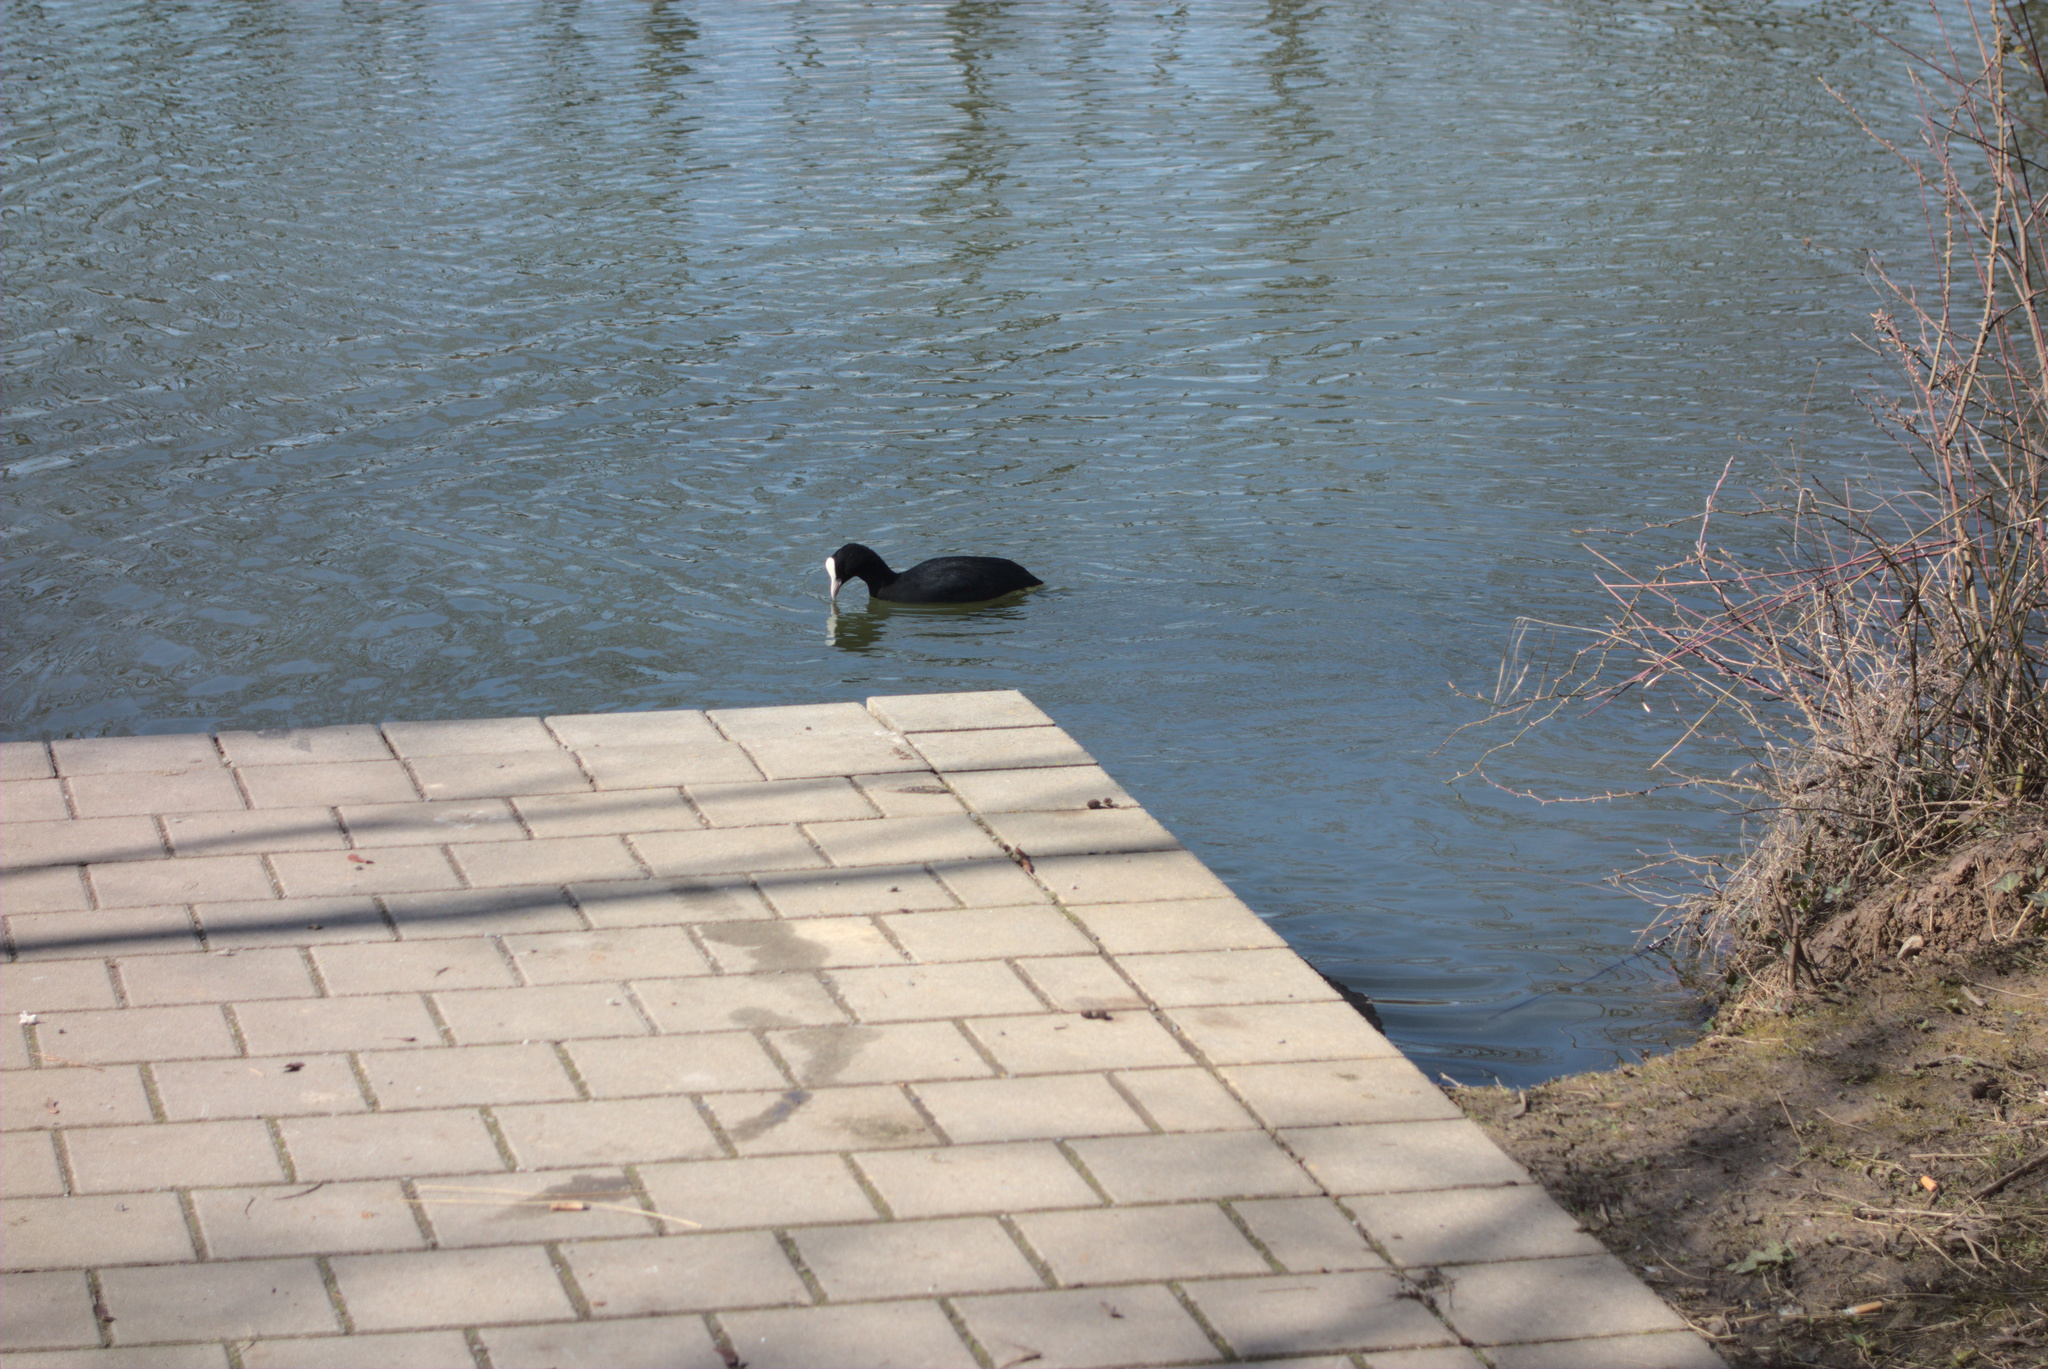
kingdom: Animalia
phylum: Chordata
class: Aves
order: Gruiformes
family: Rallidae
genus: Fulica
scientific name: Fulica atra
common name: Eurasian coot
